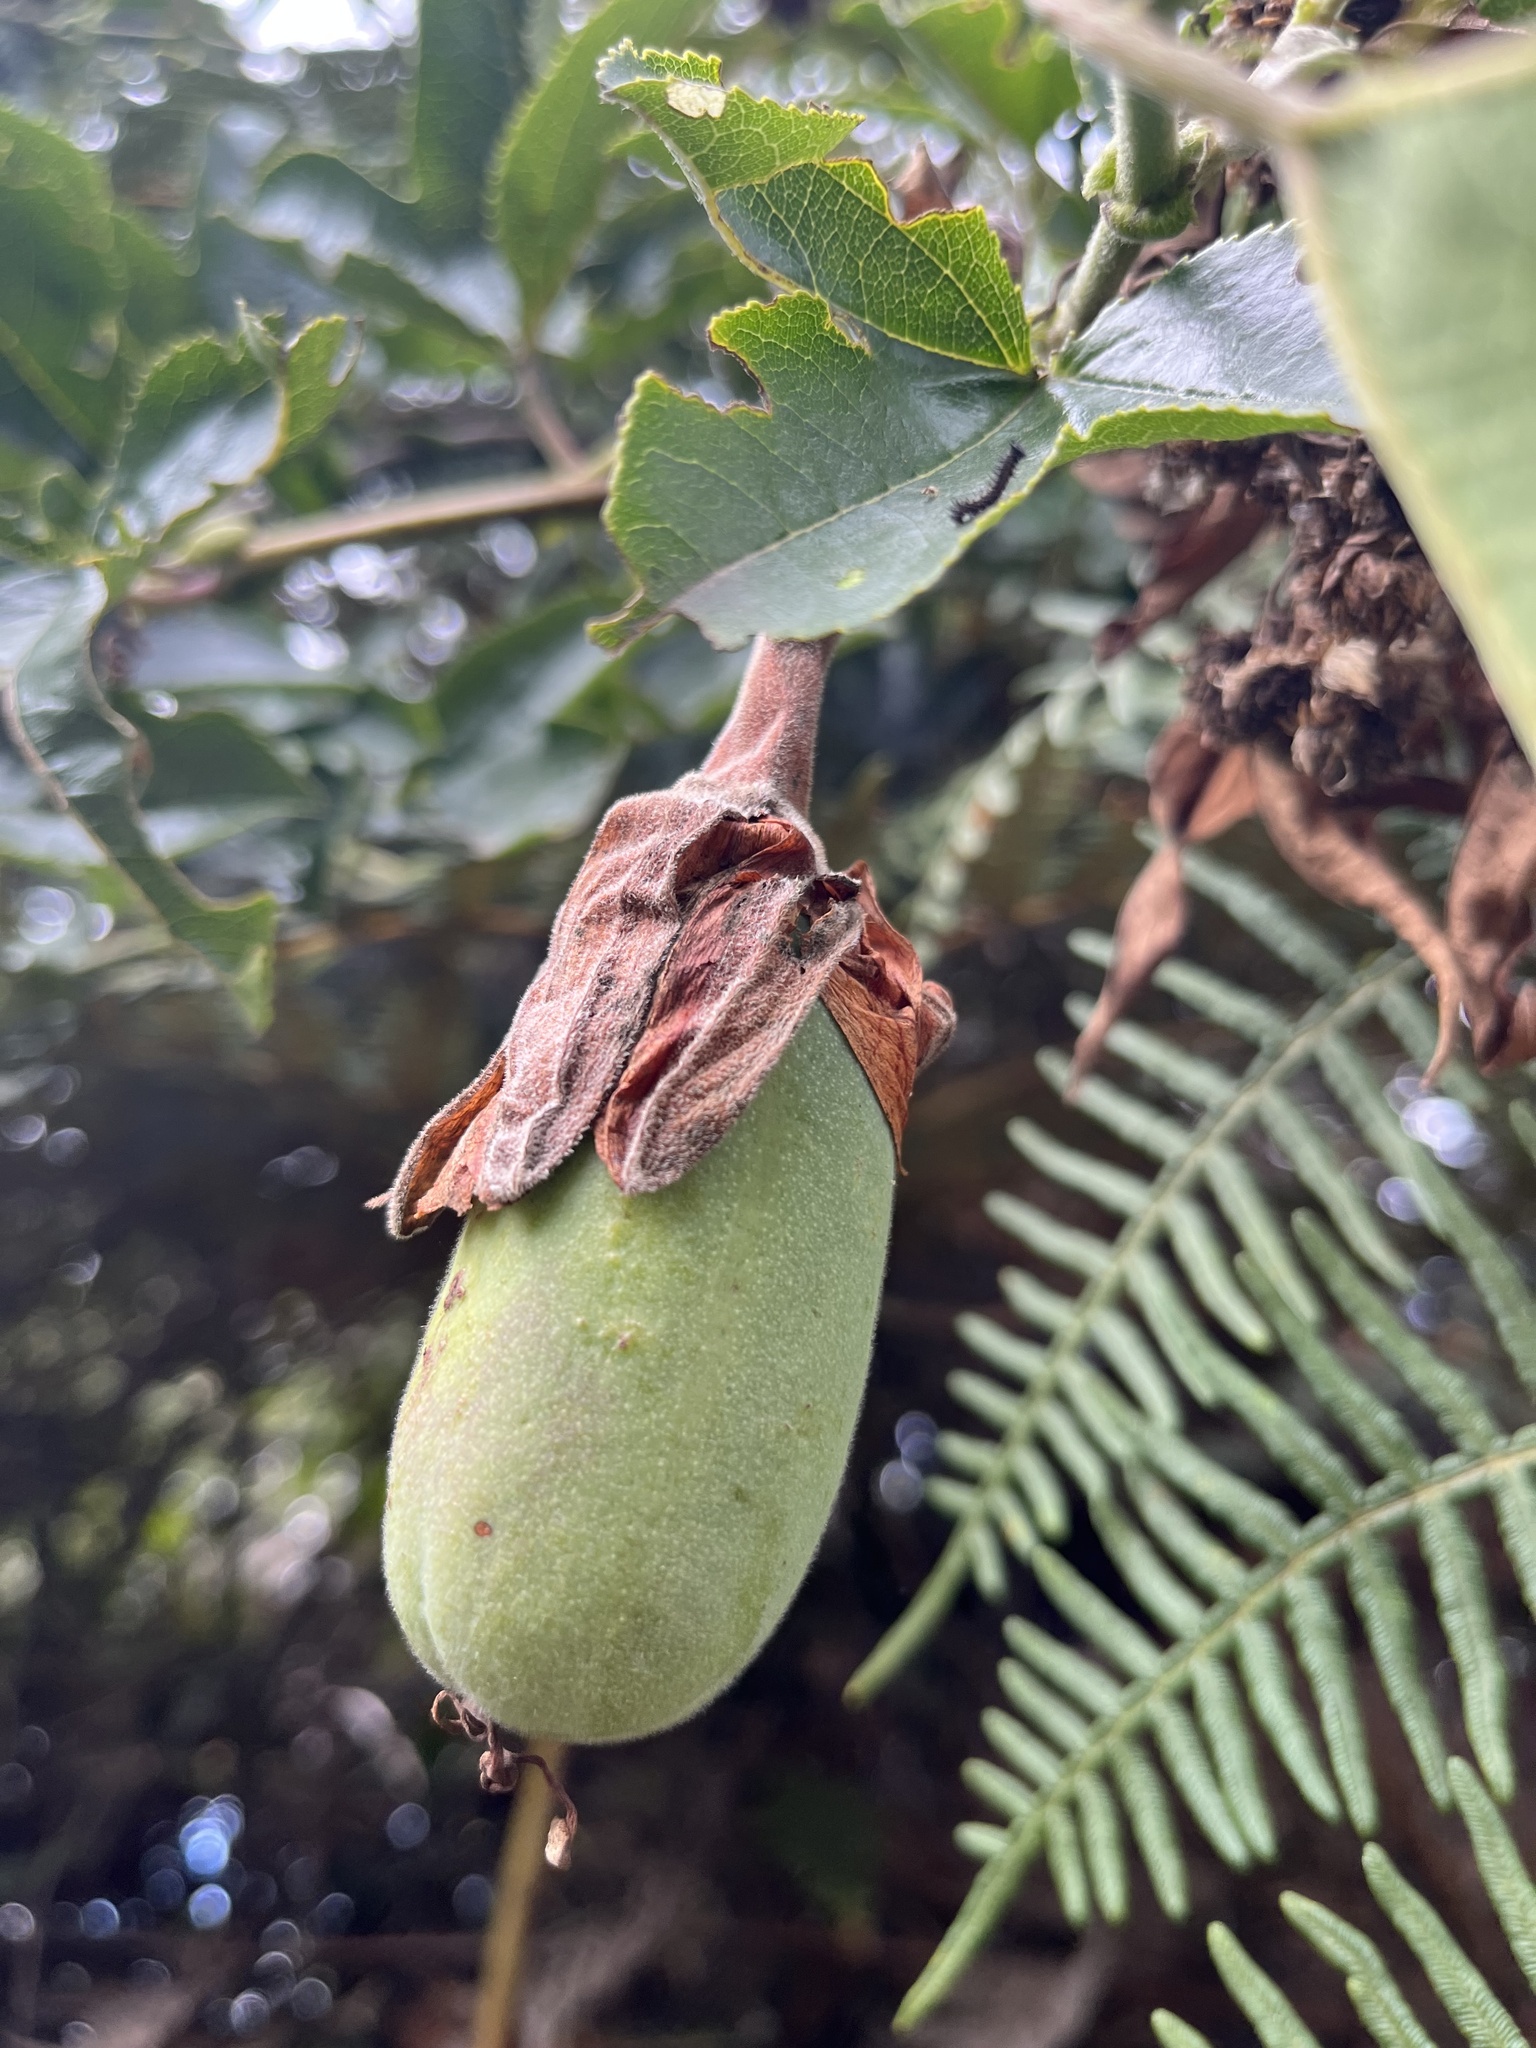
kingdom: Plantae
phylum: Tracheophyta
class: Magnoliopsida
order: Malpighiales
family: Passifloraceae
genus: Passiflora
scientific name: Passiflora mixta
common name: Passion flower
